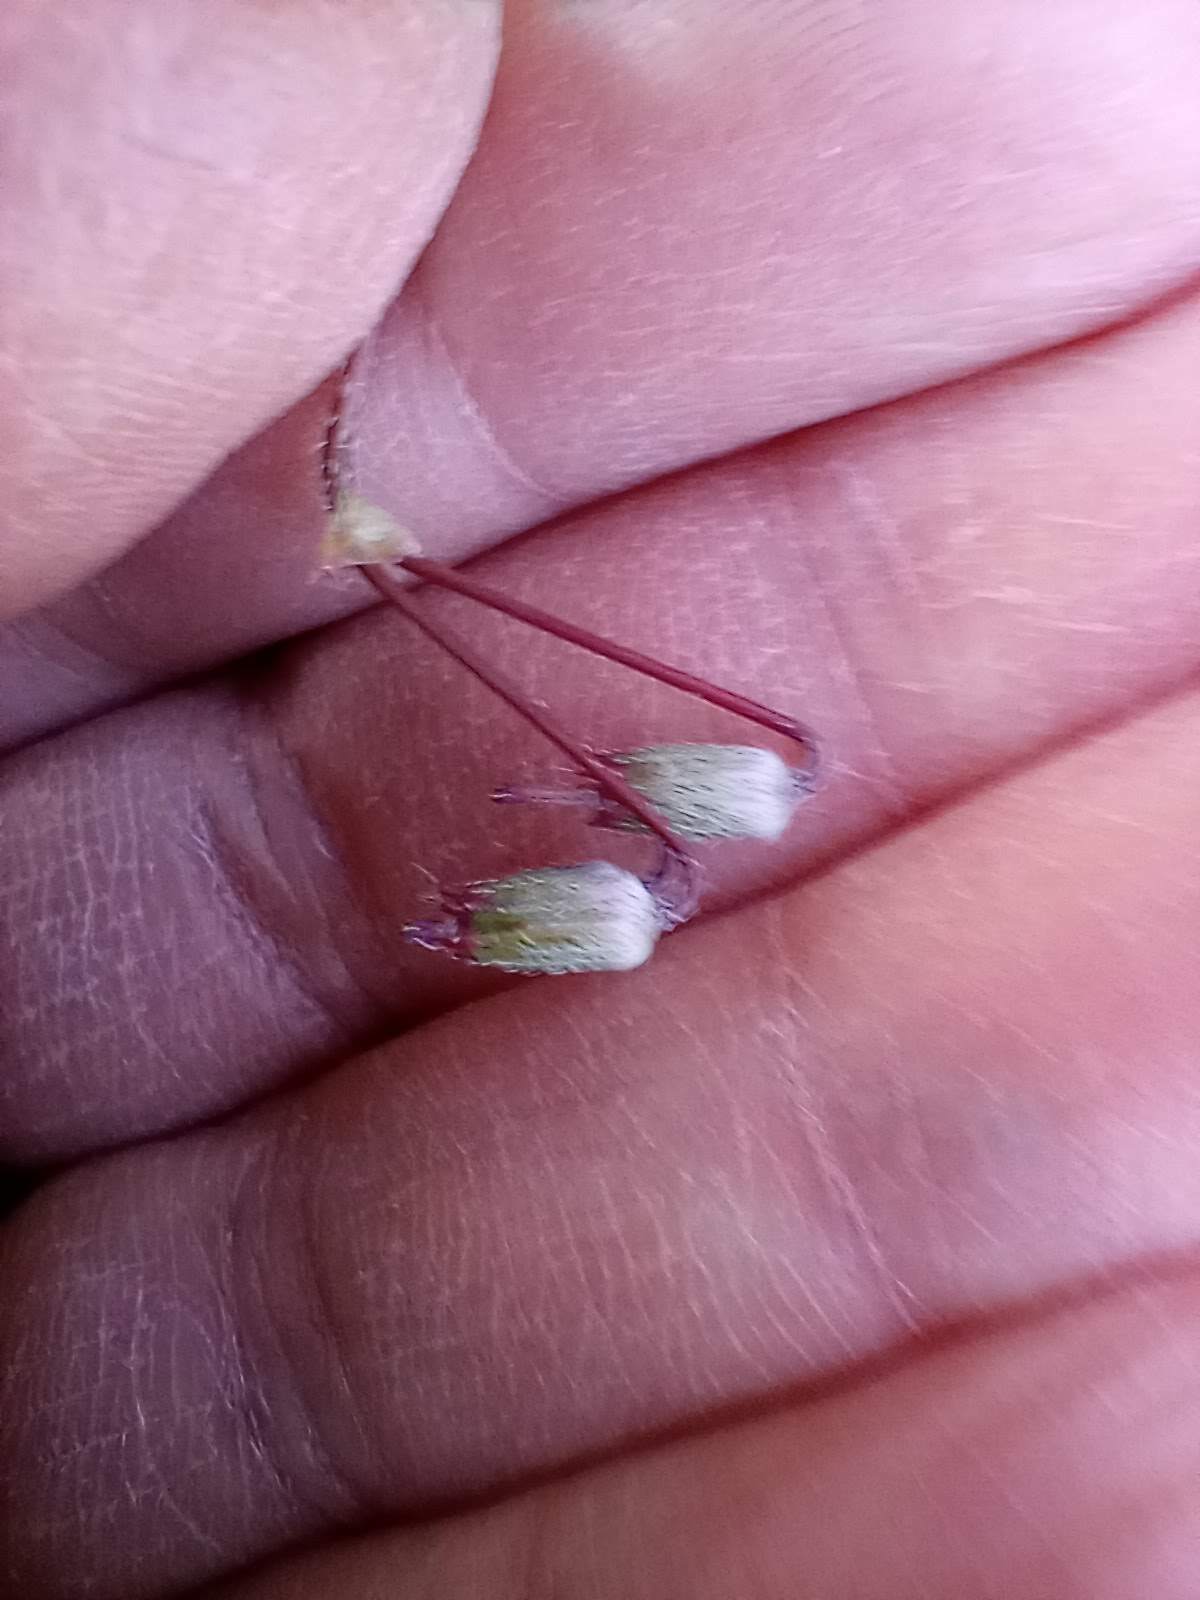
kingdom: Plantae
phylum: Tracheophyta
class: Magnoliopsida
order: Geraniales
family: Geraniaceae
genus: Erodium
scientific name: Erodium cicutarium
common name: Common stork's-bill
